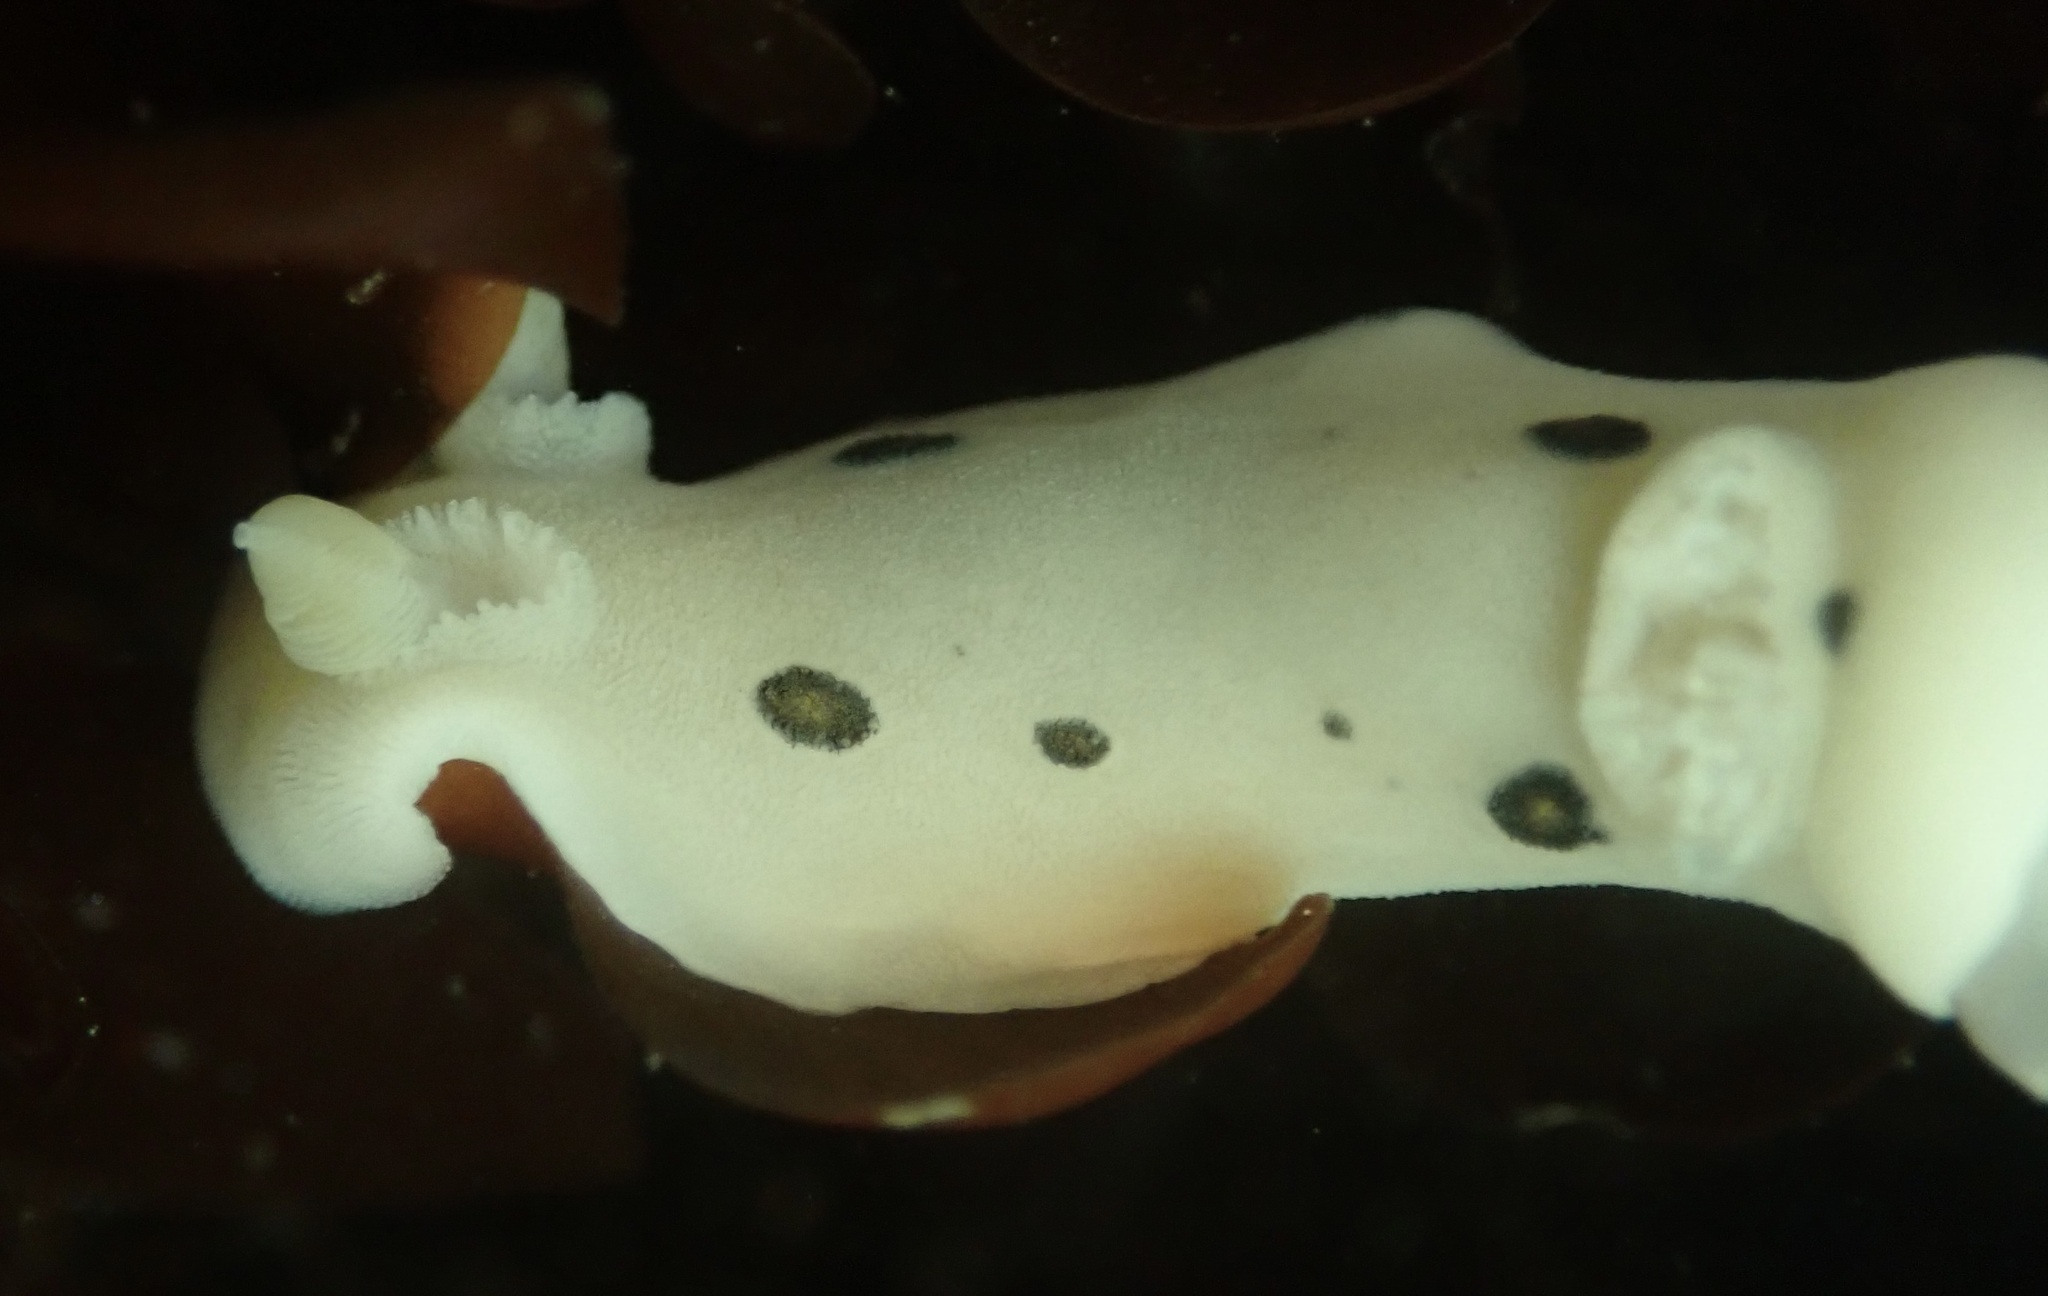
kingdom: Animalia
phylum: Mollusca
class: Gastropoda
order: Nudibranchia
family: Discodorididae
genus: Diaulula
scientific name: Diaulula sandiegensis
